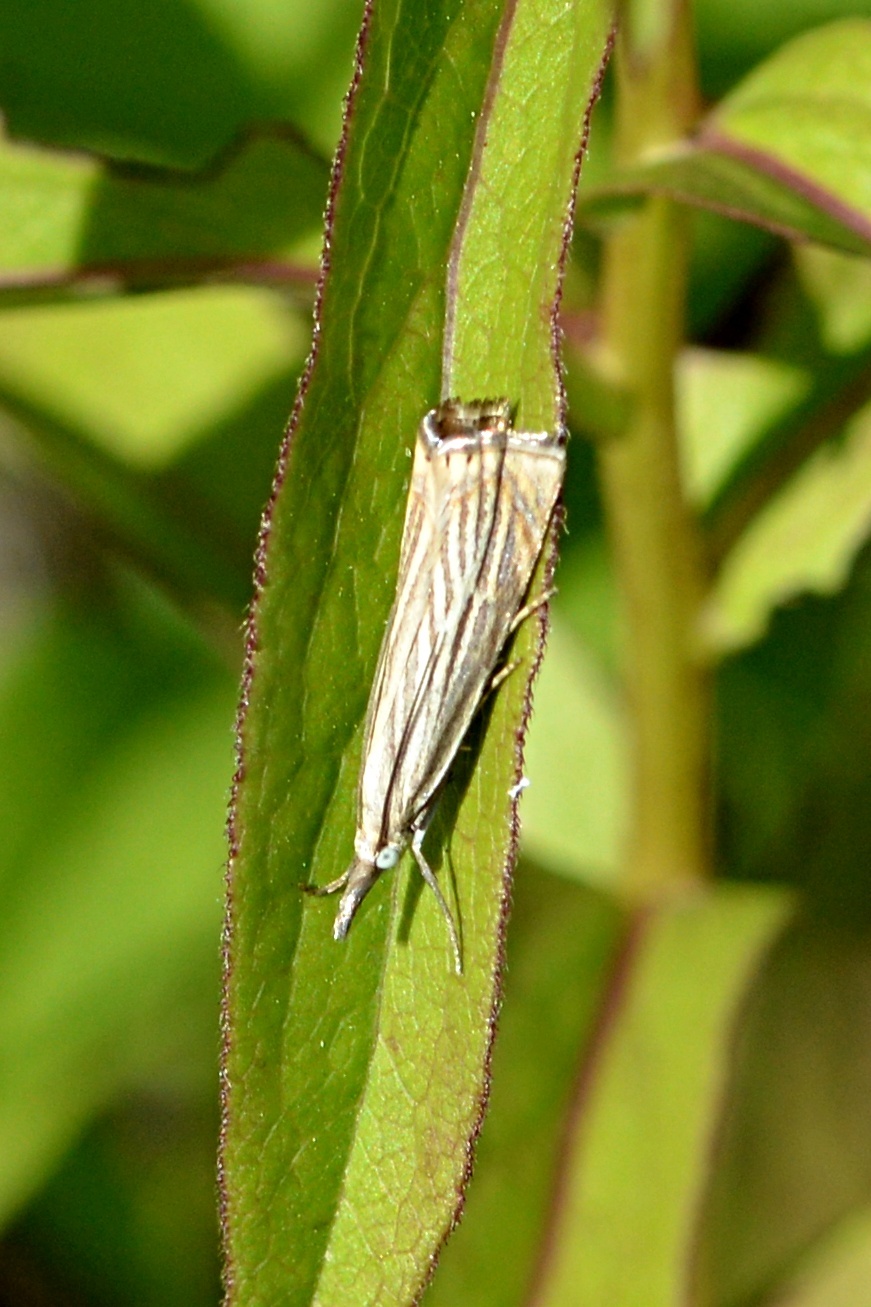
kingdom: Animalia
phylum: Arthropoda
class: Insecta
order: Lepidoptera
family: Crambidae
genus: Chrysoteuchia
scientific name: Chrysoteuchia culmella
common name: Garden grass-veneer
